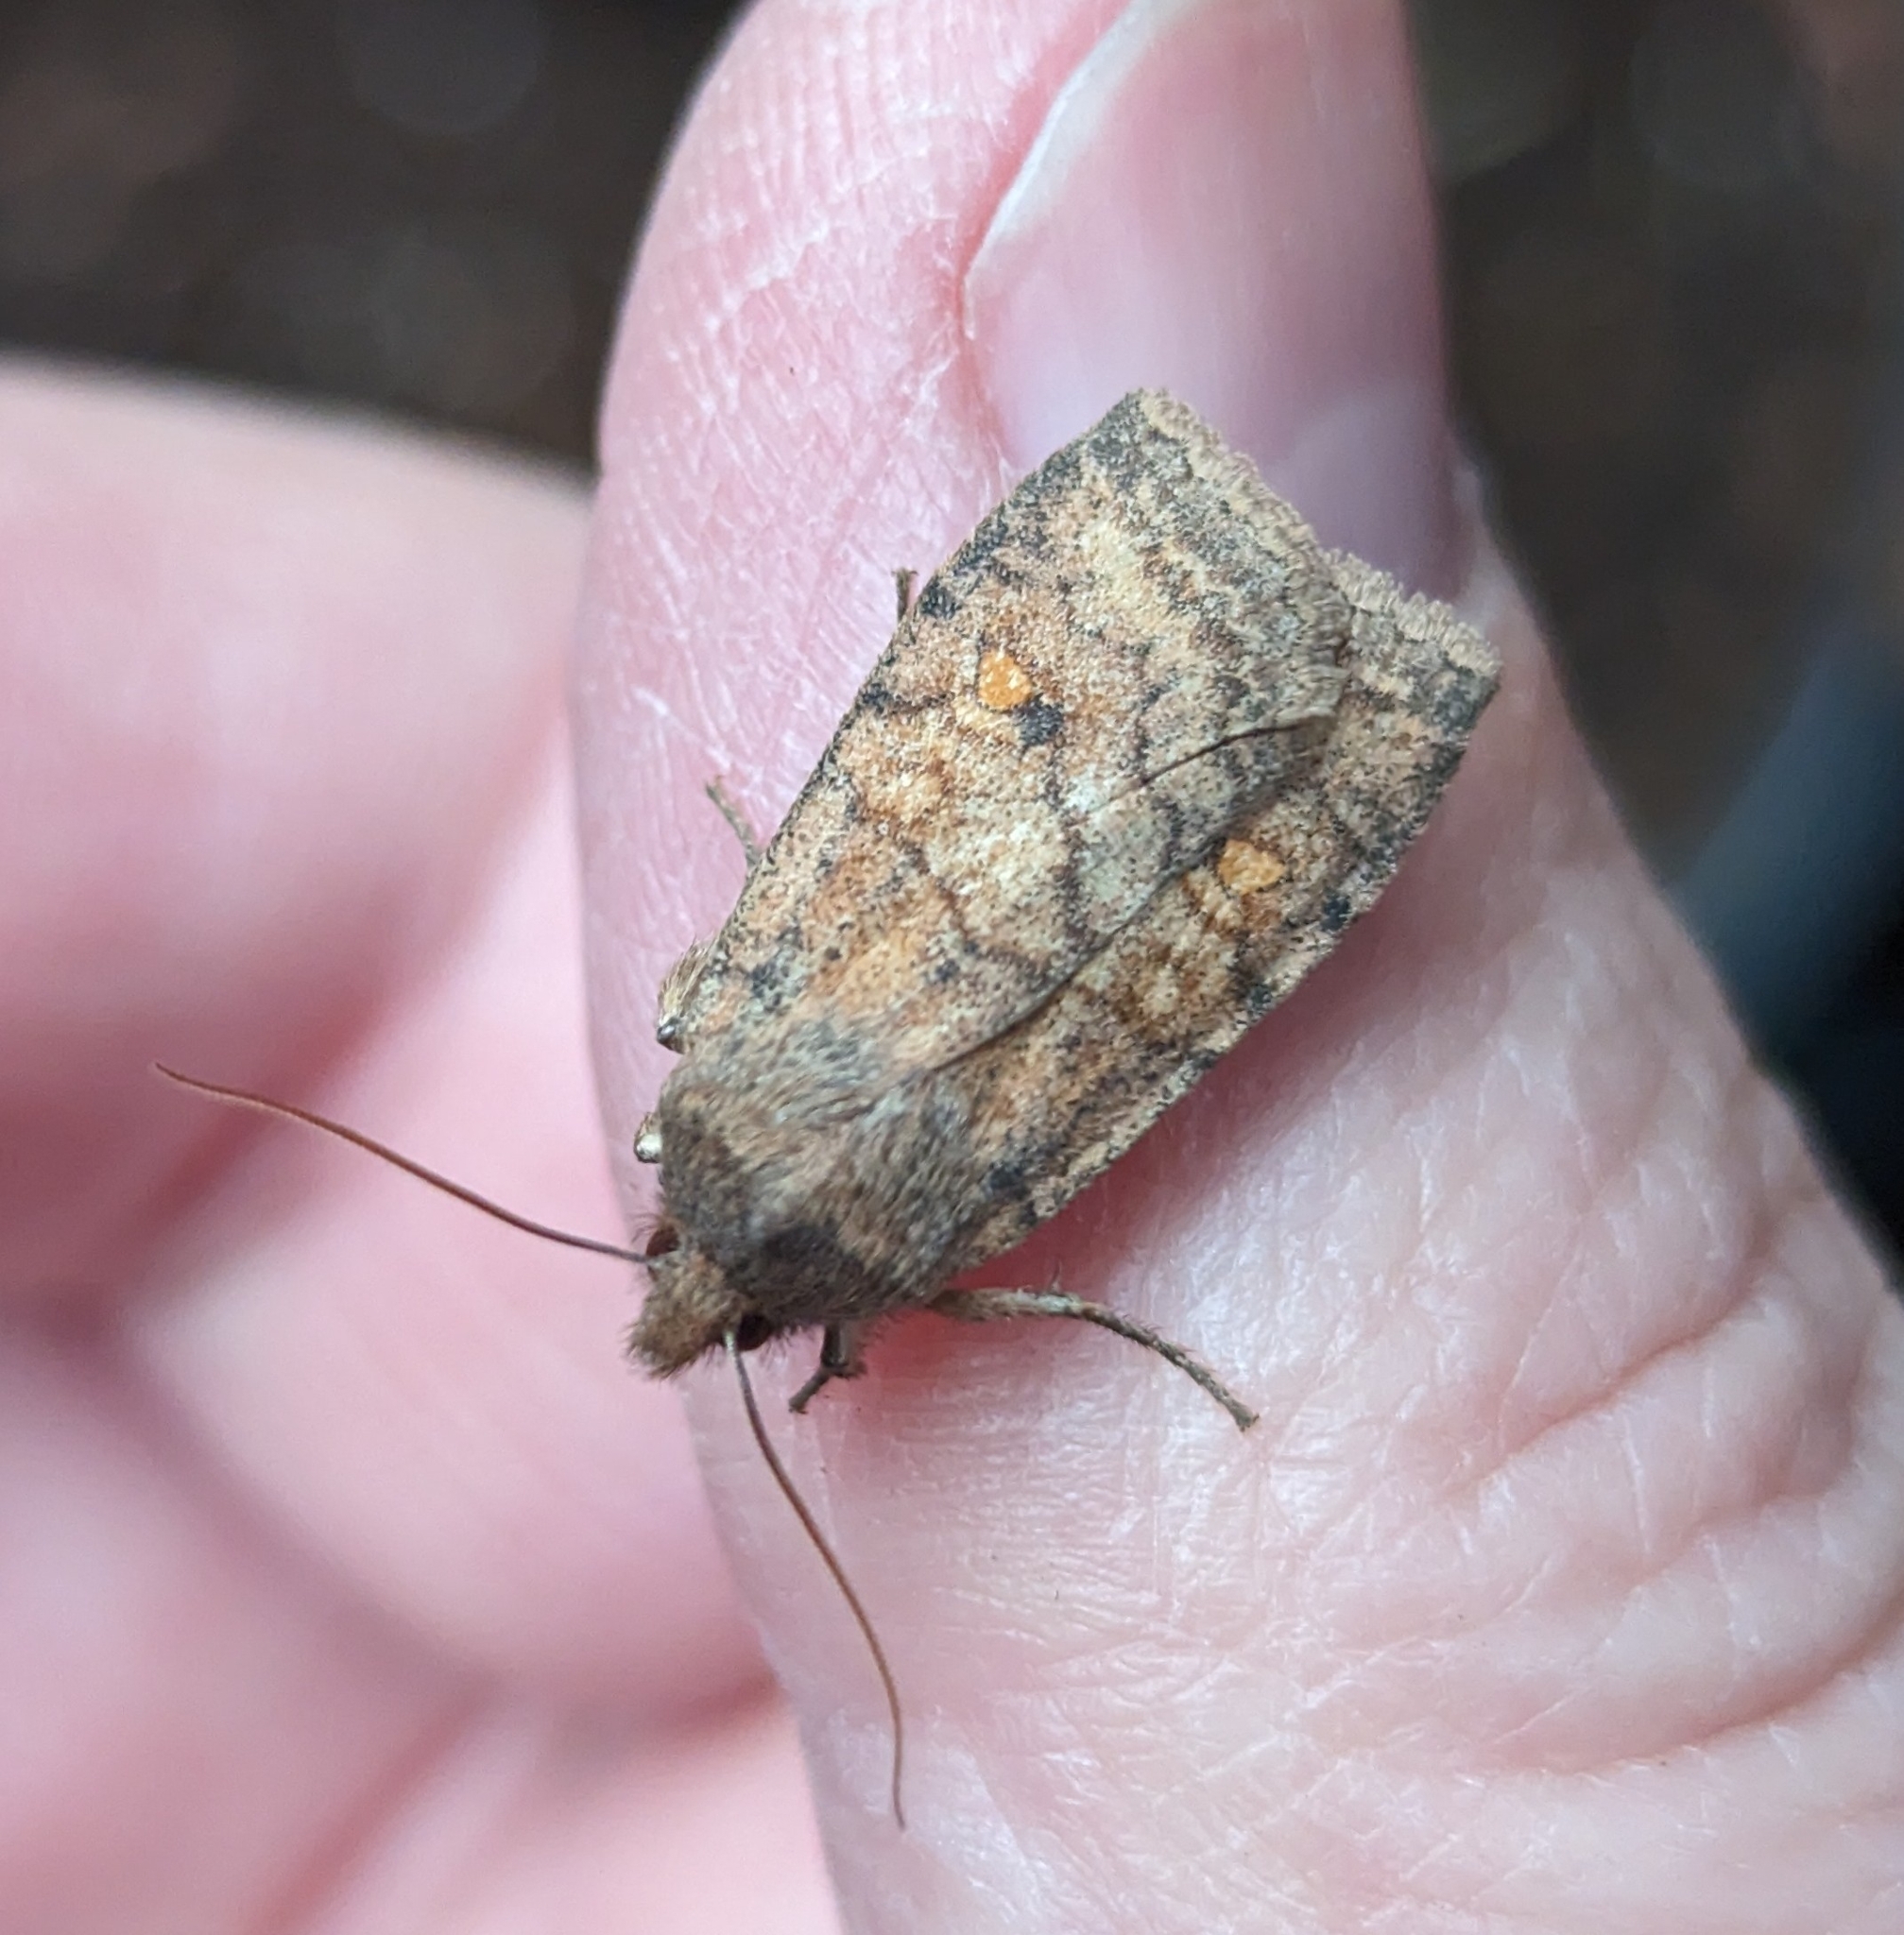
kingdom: Animalia
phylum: Arthropoda
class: Insecta
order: Lepidoptera
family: Noctuidae
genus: Eupsilia
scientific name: Eupsilia tristigmata
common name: Three-spotted sallow
